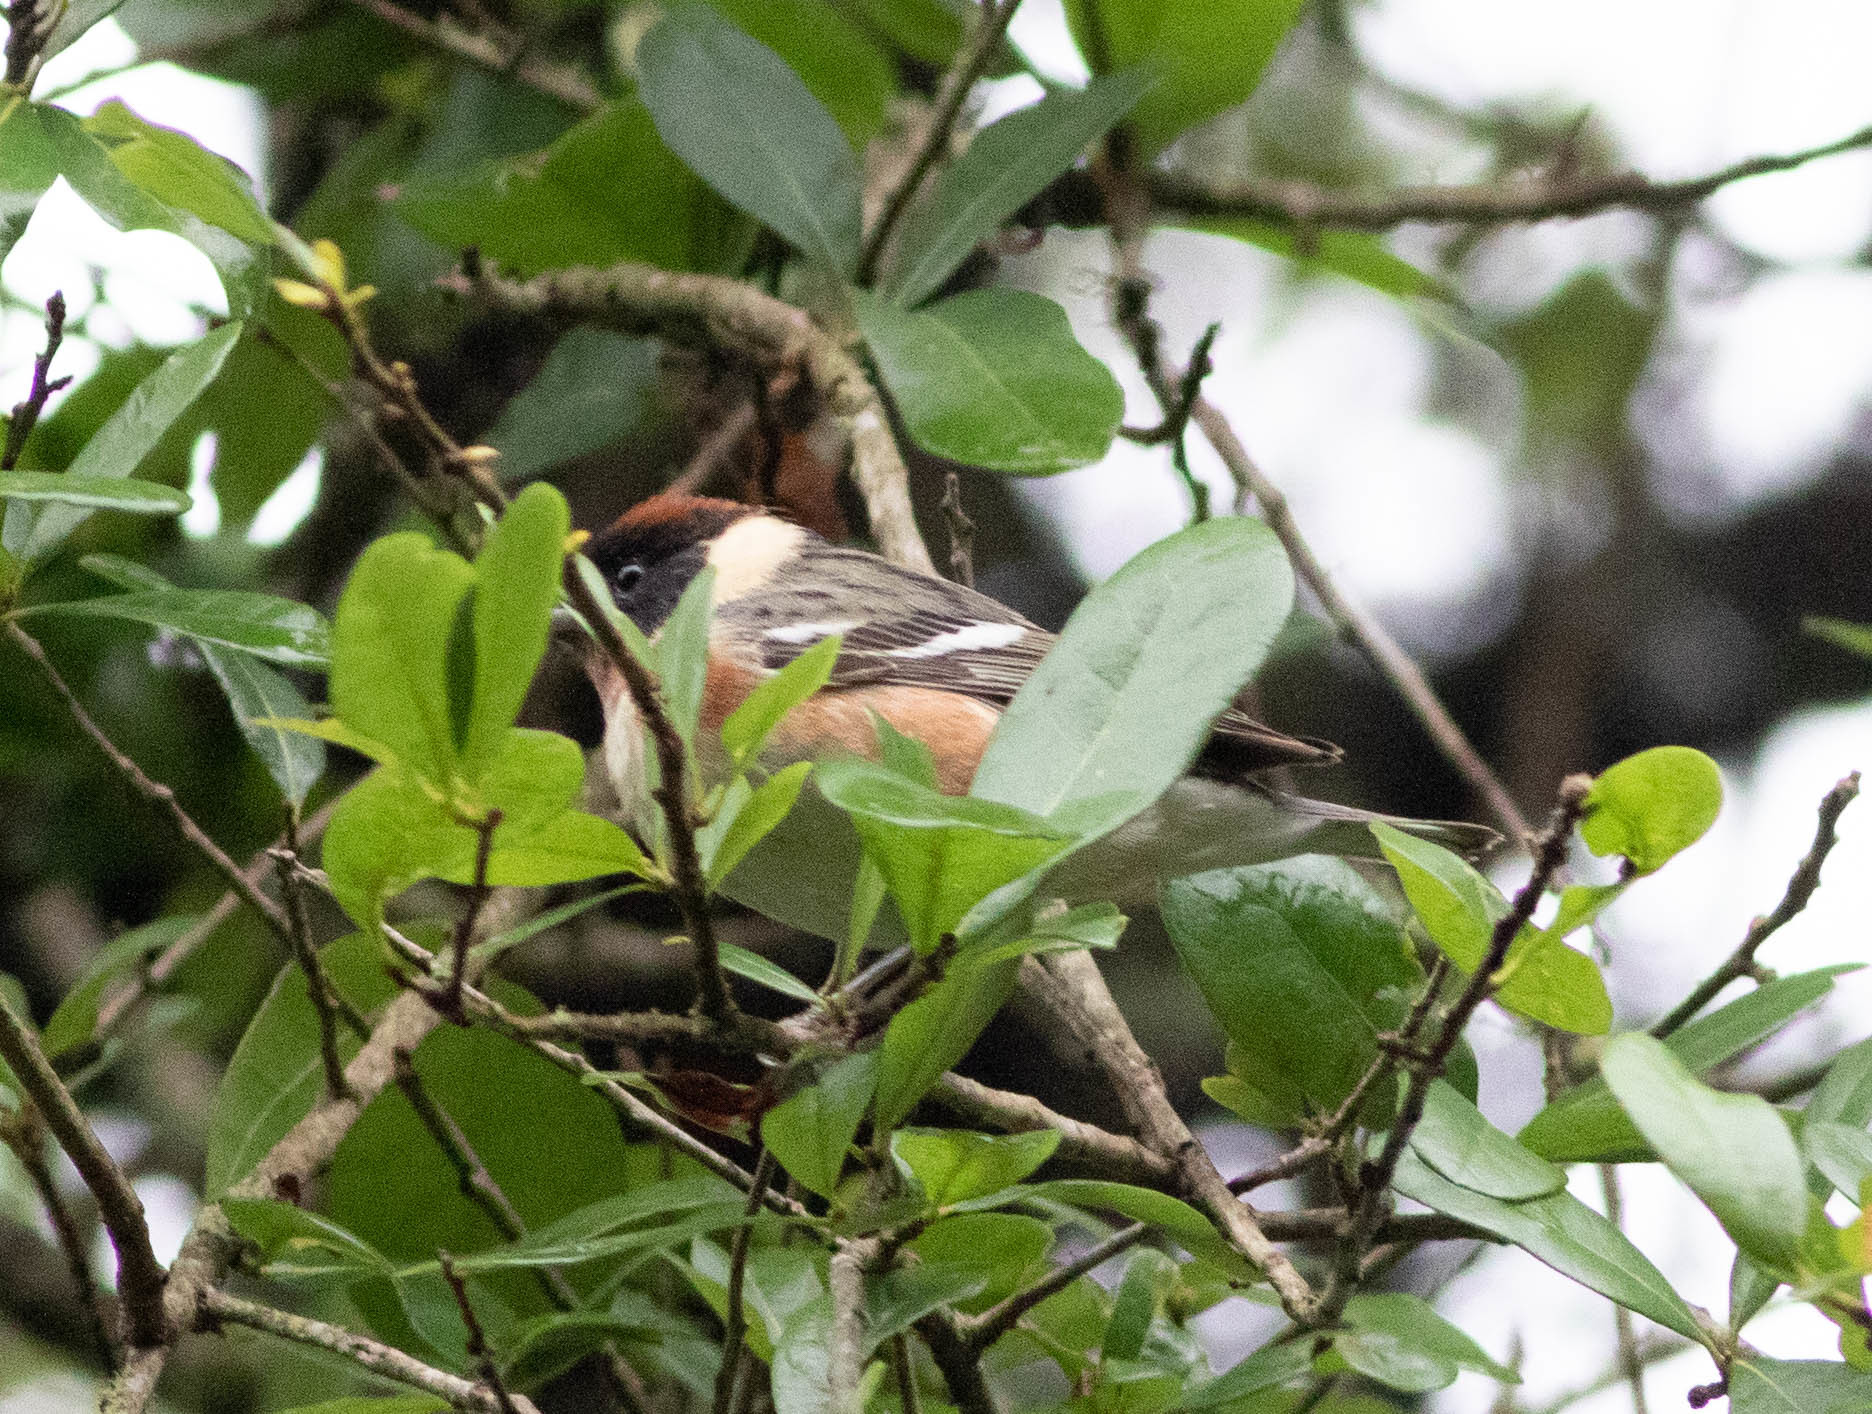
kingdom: Animalia
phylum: Chordata
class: Aves
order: Passeriformes
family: Parulidae
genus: Setophaga
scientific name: Setophaga castanea
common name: Bay-breasted warbler
